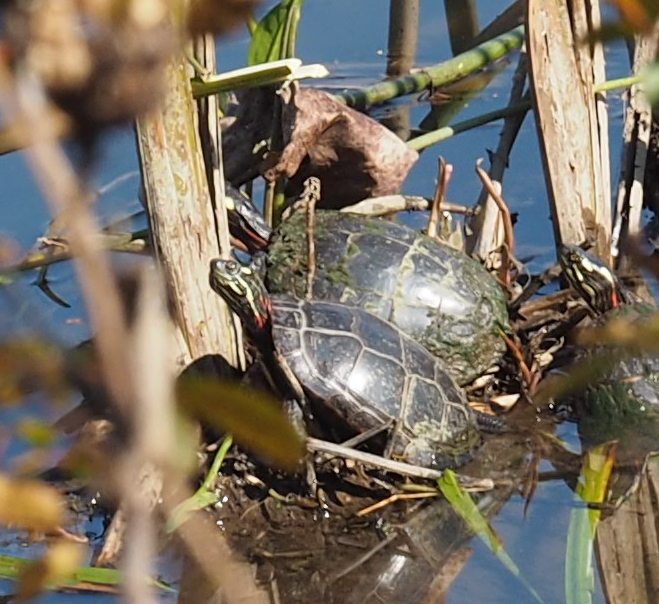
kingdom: Animalia
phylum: Chordata
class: Testudines
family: Emydidae
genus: Chrysemys
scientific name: Chrysemys picta
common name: Painted turtle
